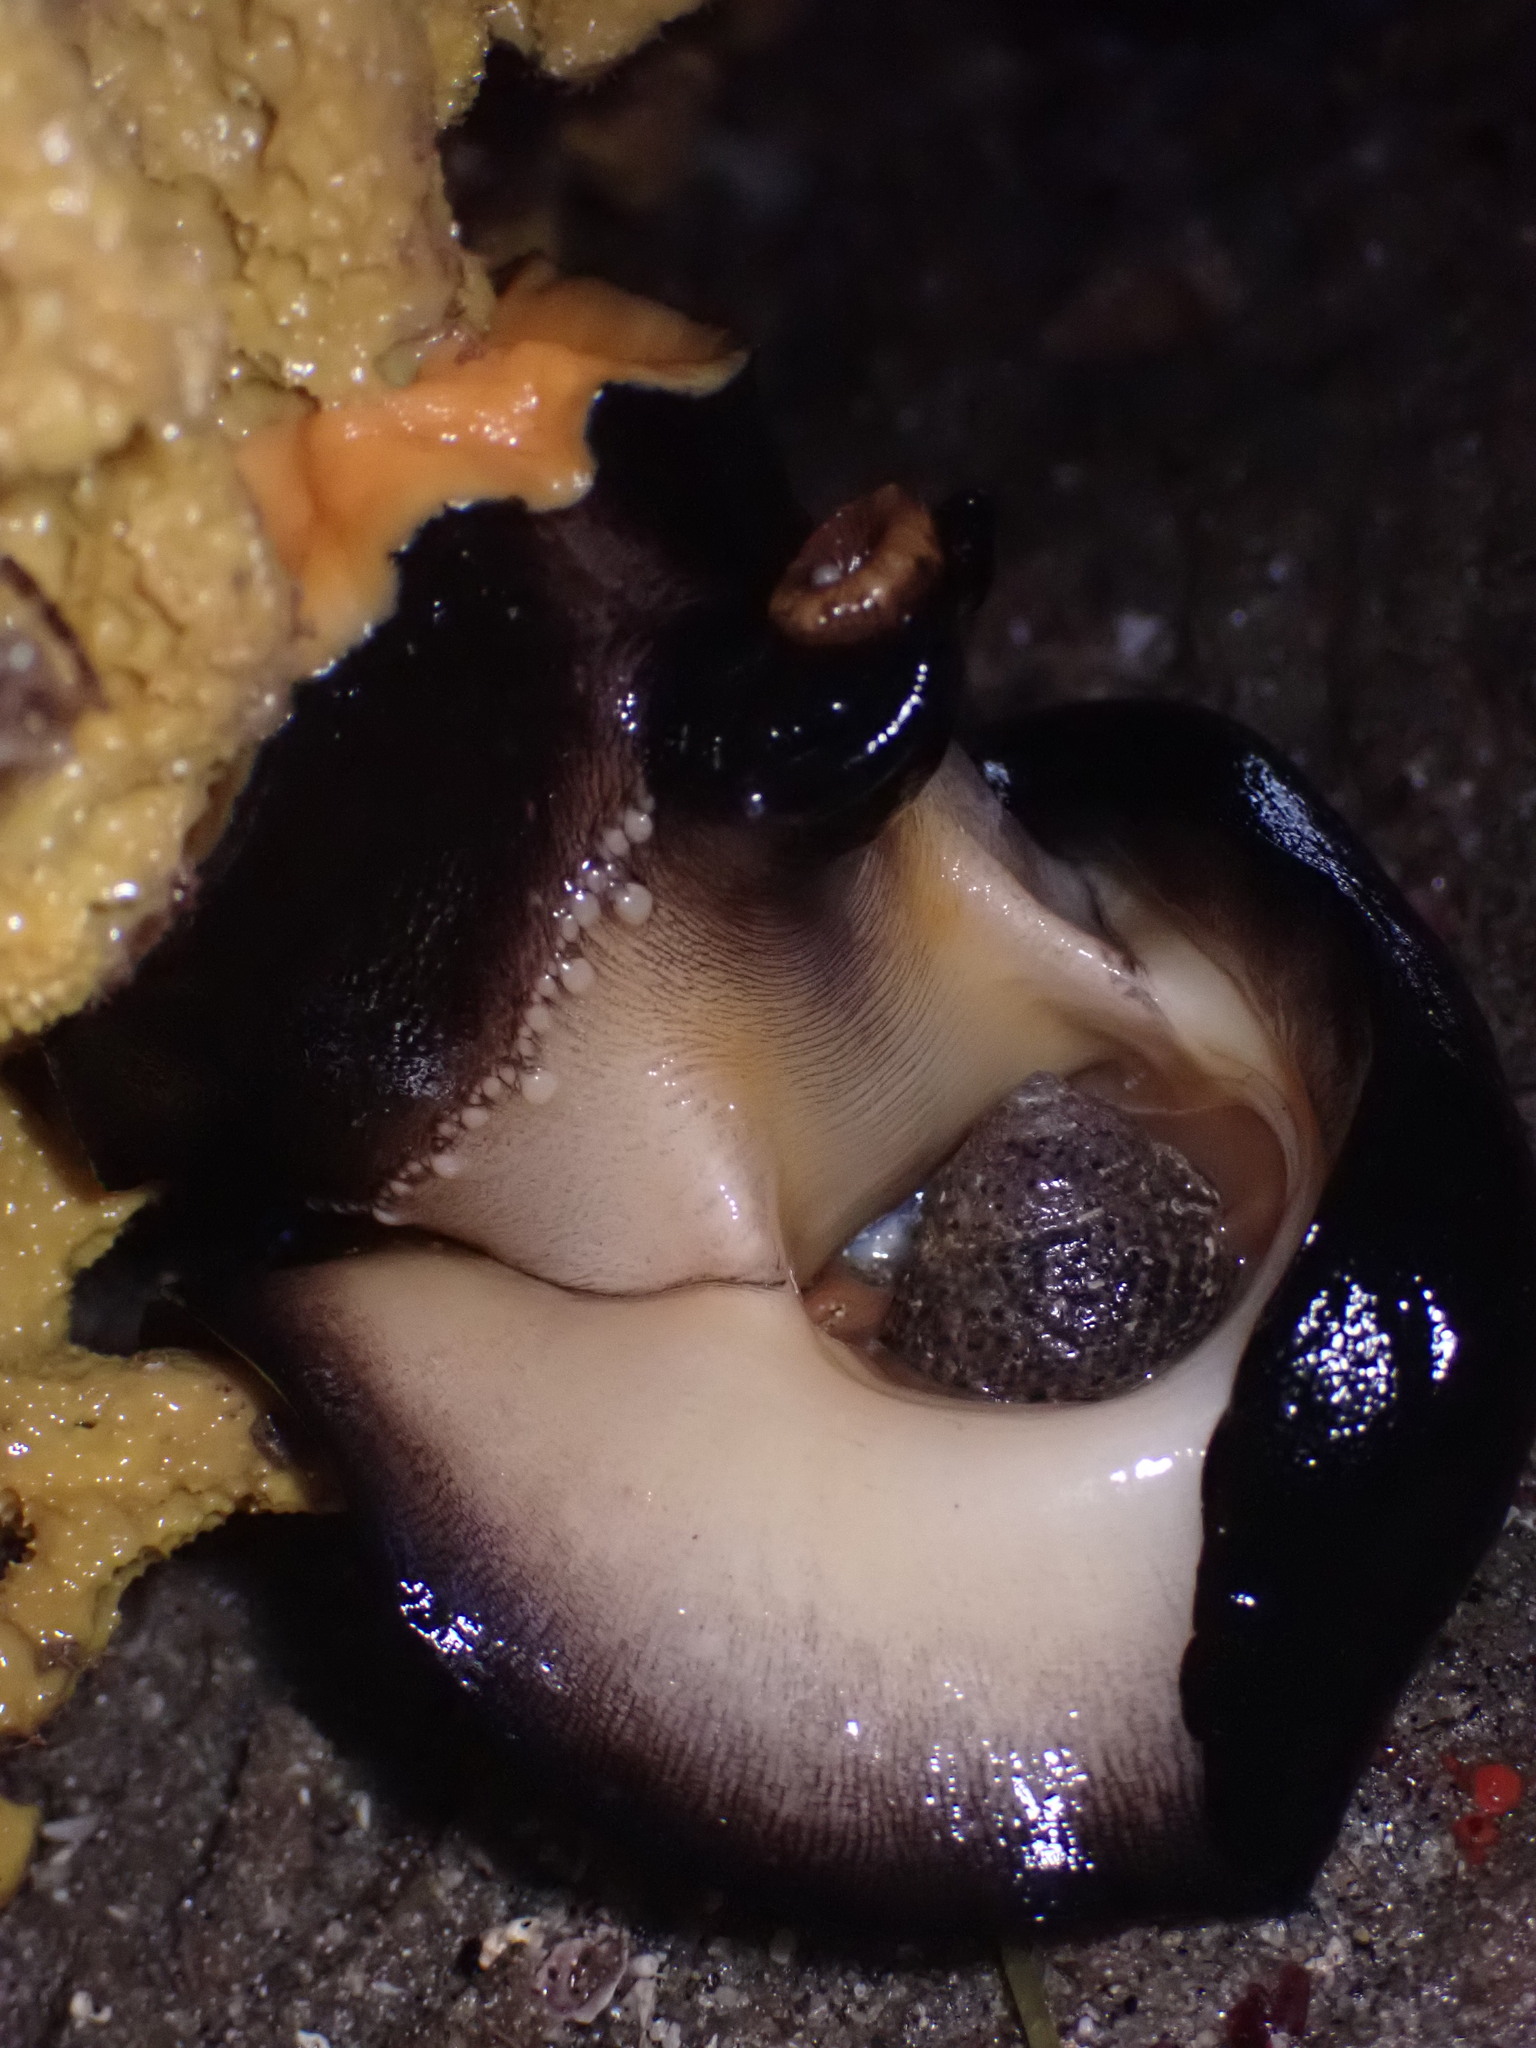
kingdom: Animalia
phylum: Mollusca
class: Gastropoda
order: Lepetellida
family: Fissurellidae
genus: Megathura
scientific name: Megathura crenulata
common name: Giant keyhole limpet
